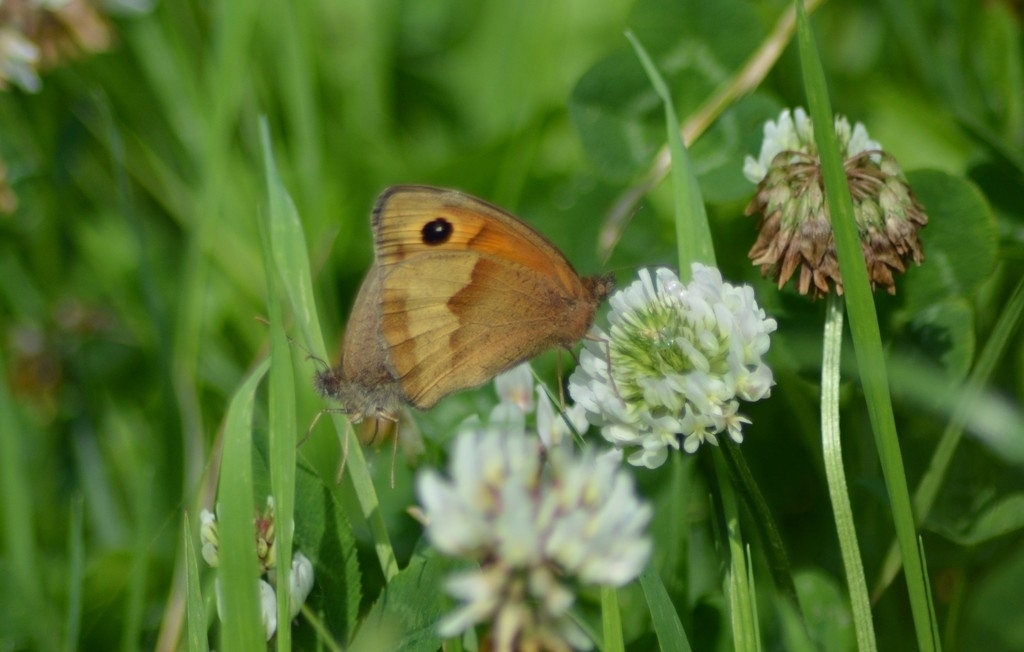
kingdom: Animalia
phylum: Arthropoda
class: Insecta
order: Lepidoptera
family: Nymphalidae
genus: Maniola
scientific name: Maniola jurtina
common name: Meadow brown
